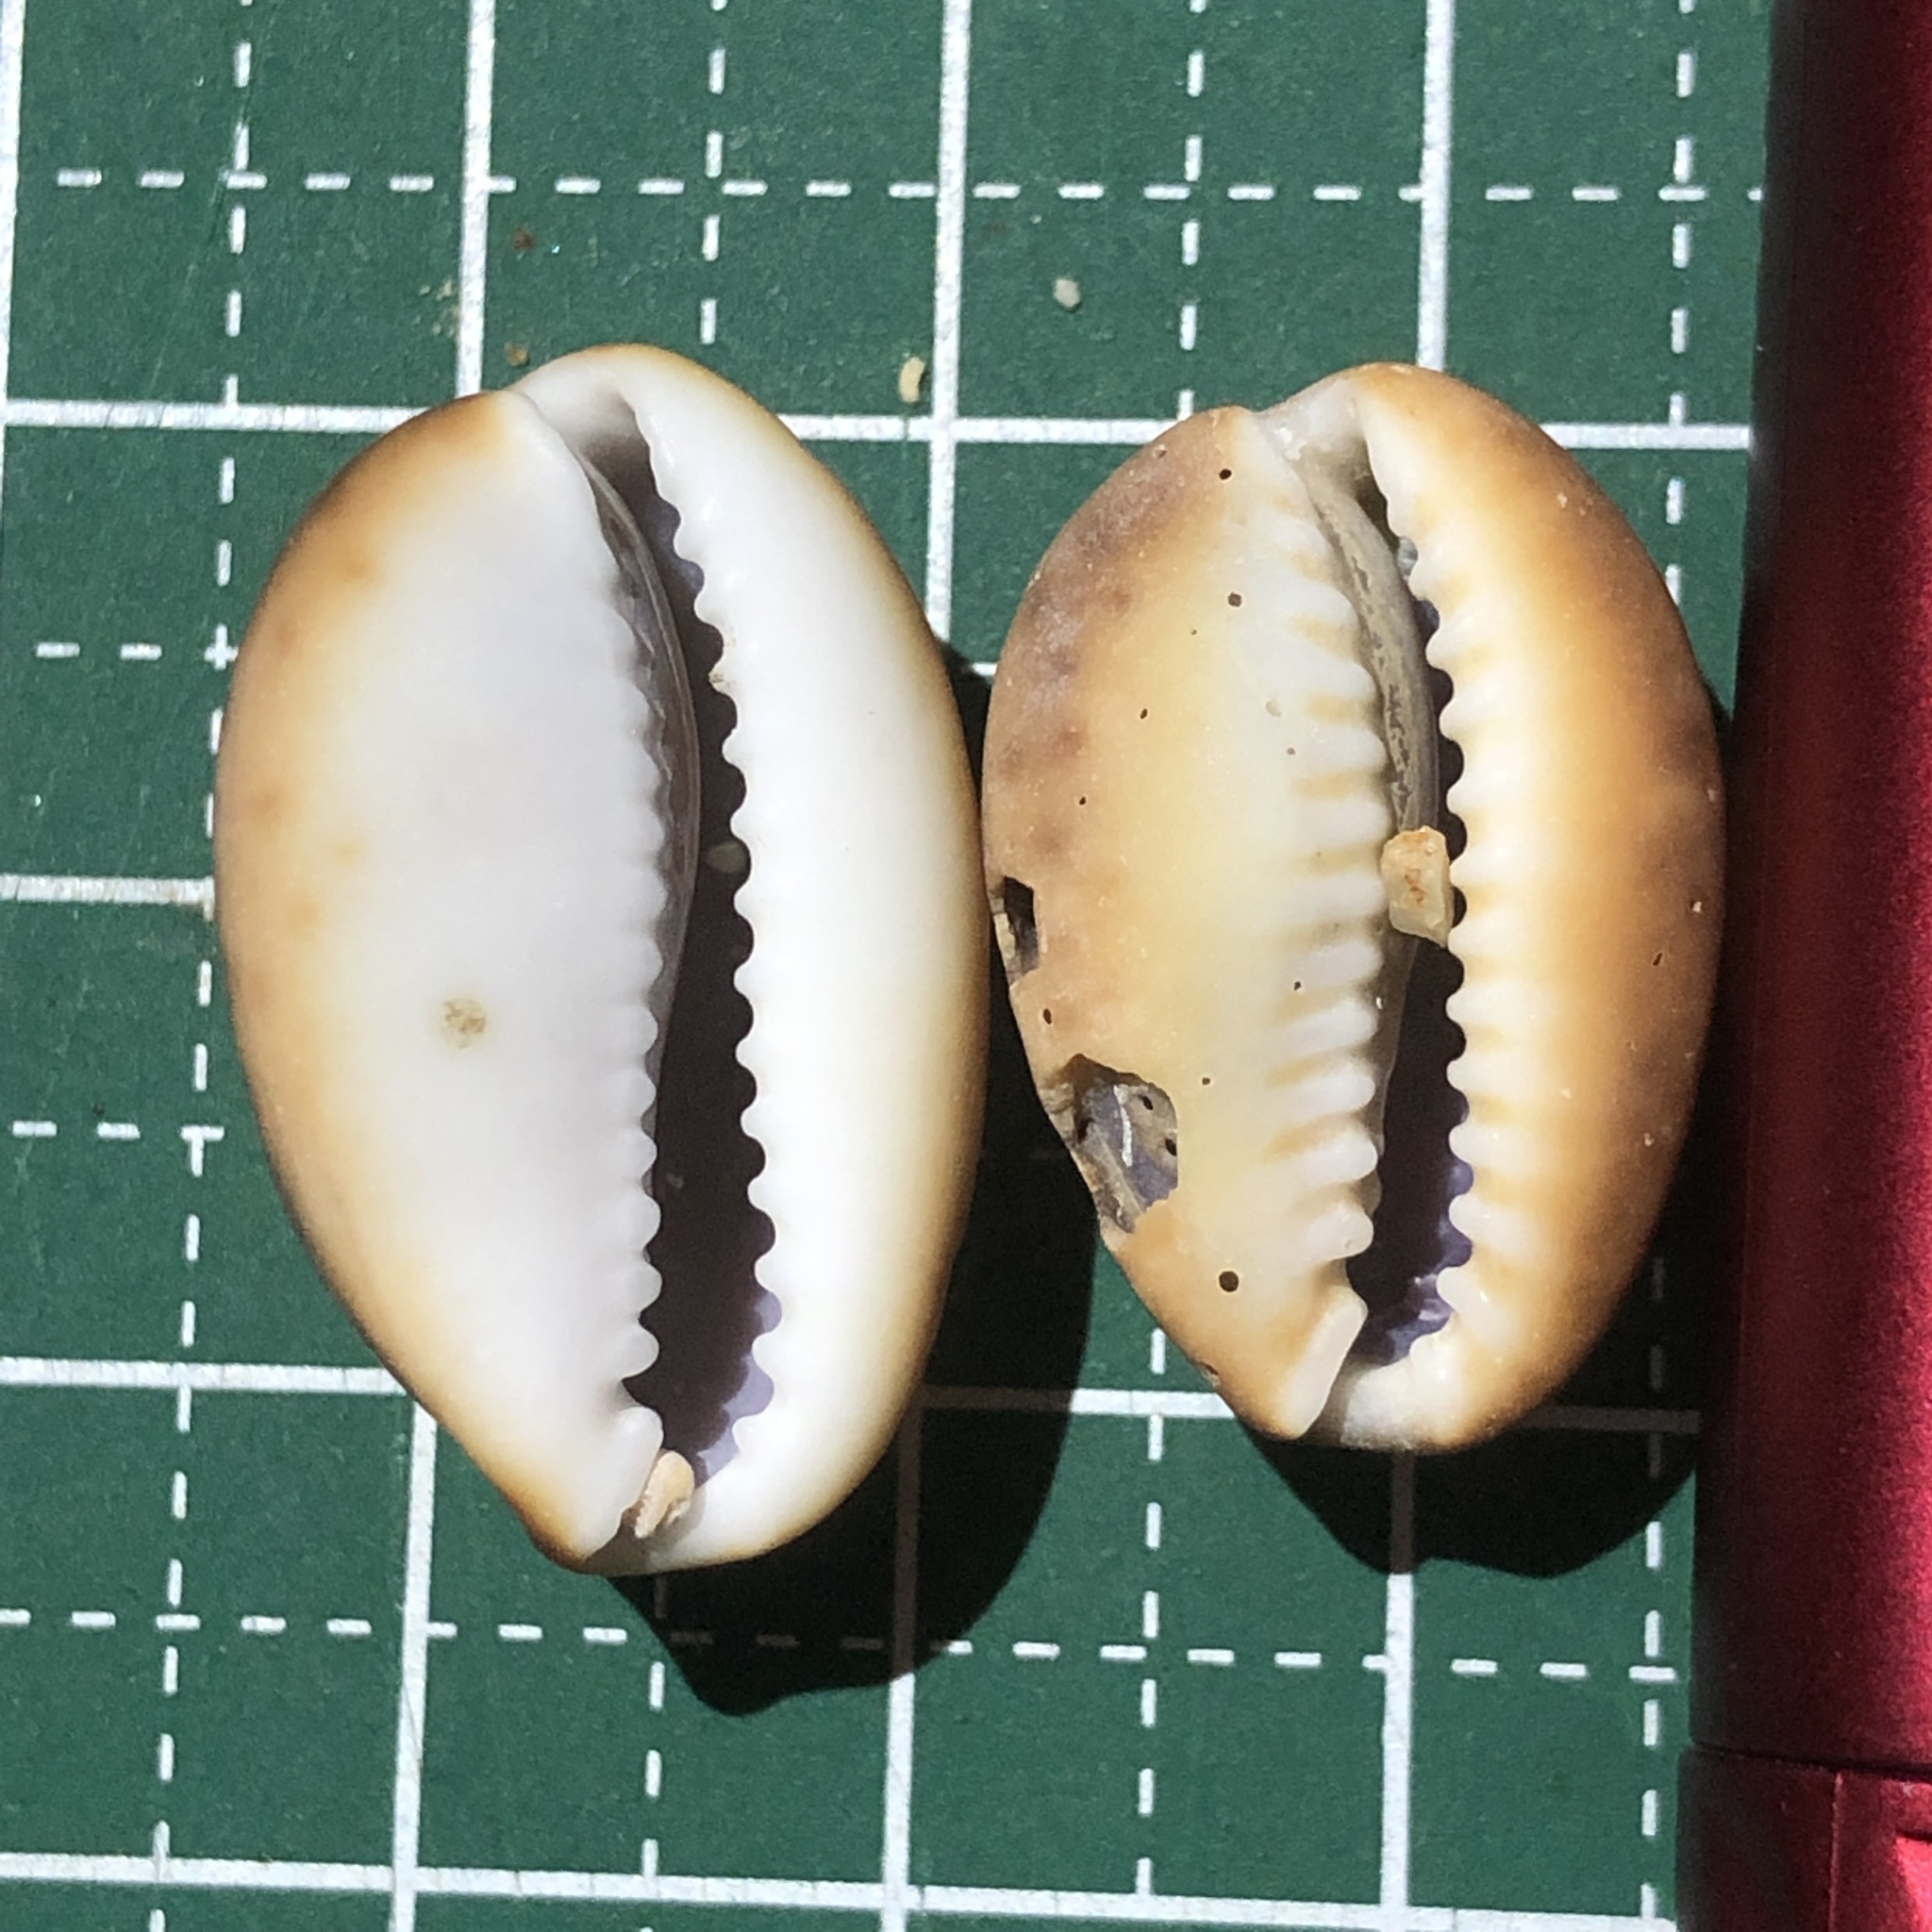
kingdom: Animalia
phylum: Mollusca
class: Gastropoda
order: Littorinimorpha
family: Cypraeidae
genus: Monetaria
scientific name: Monetaria caputserpentis
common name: Serpent's head cowrie
